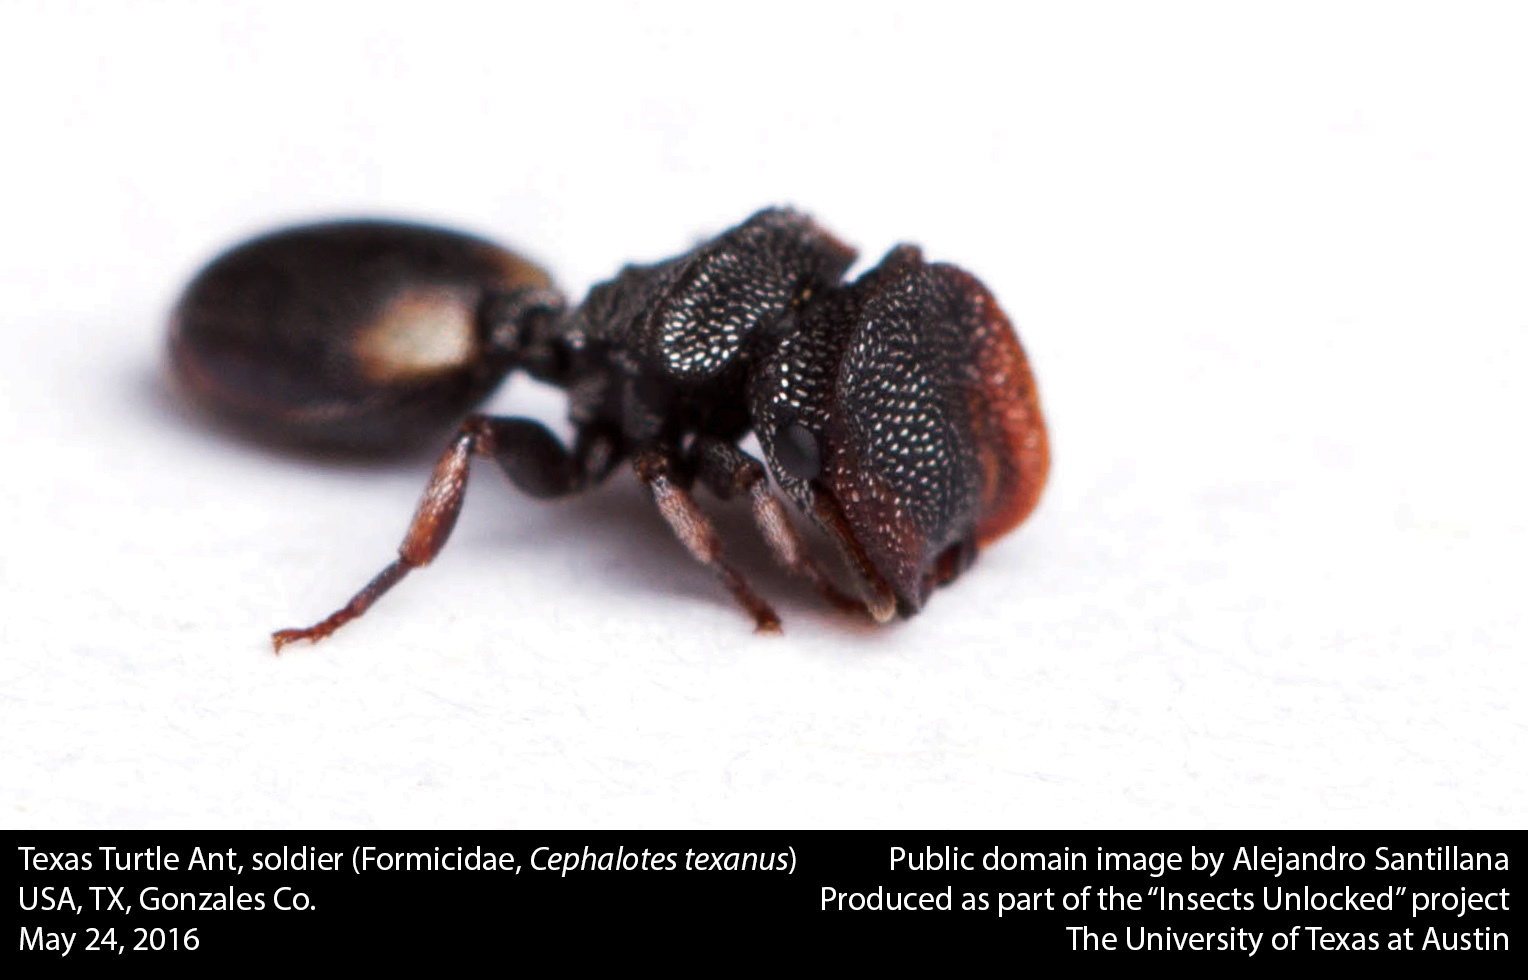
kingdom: Animalia
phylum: Arthropoda
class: Insecta
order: Hymenoptera
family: Formicidae
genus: Cephalotes
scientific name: Cephalotes texanus
